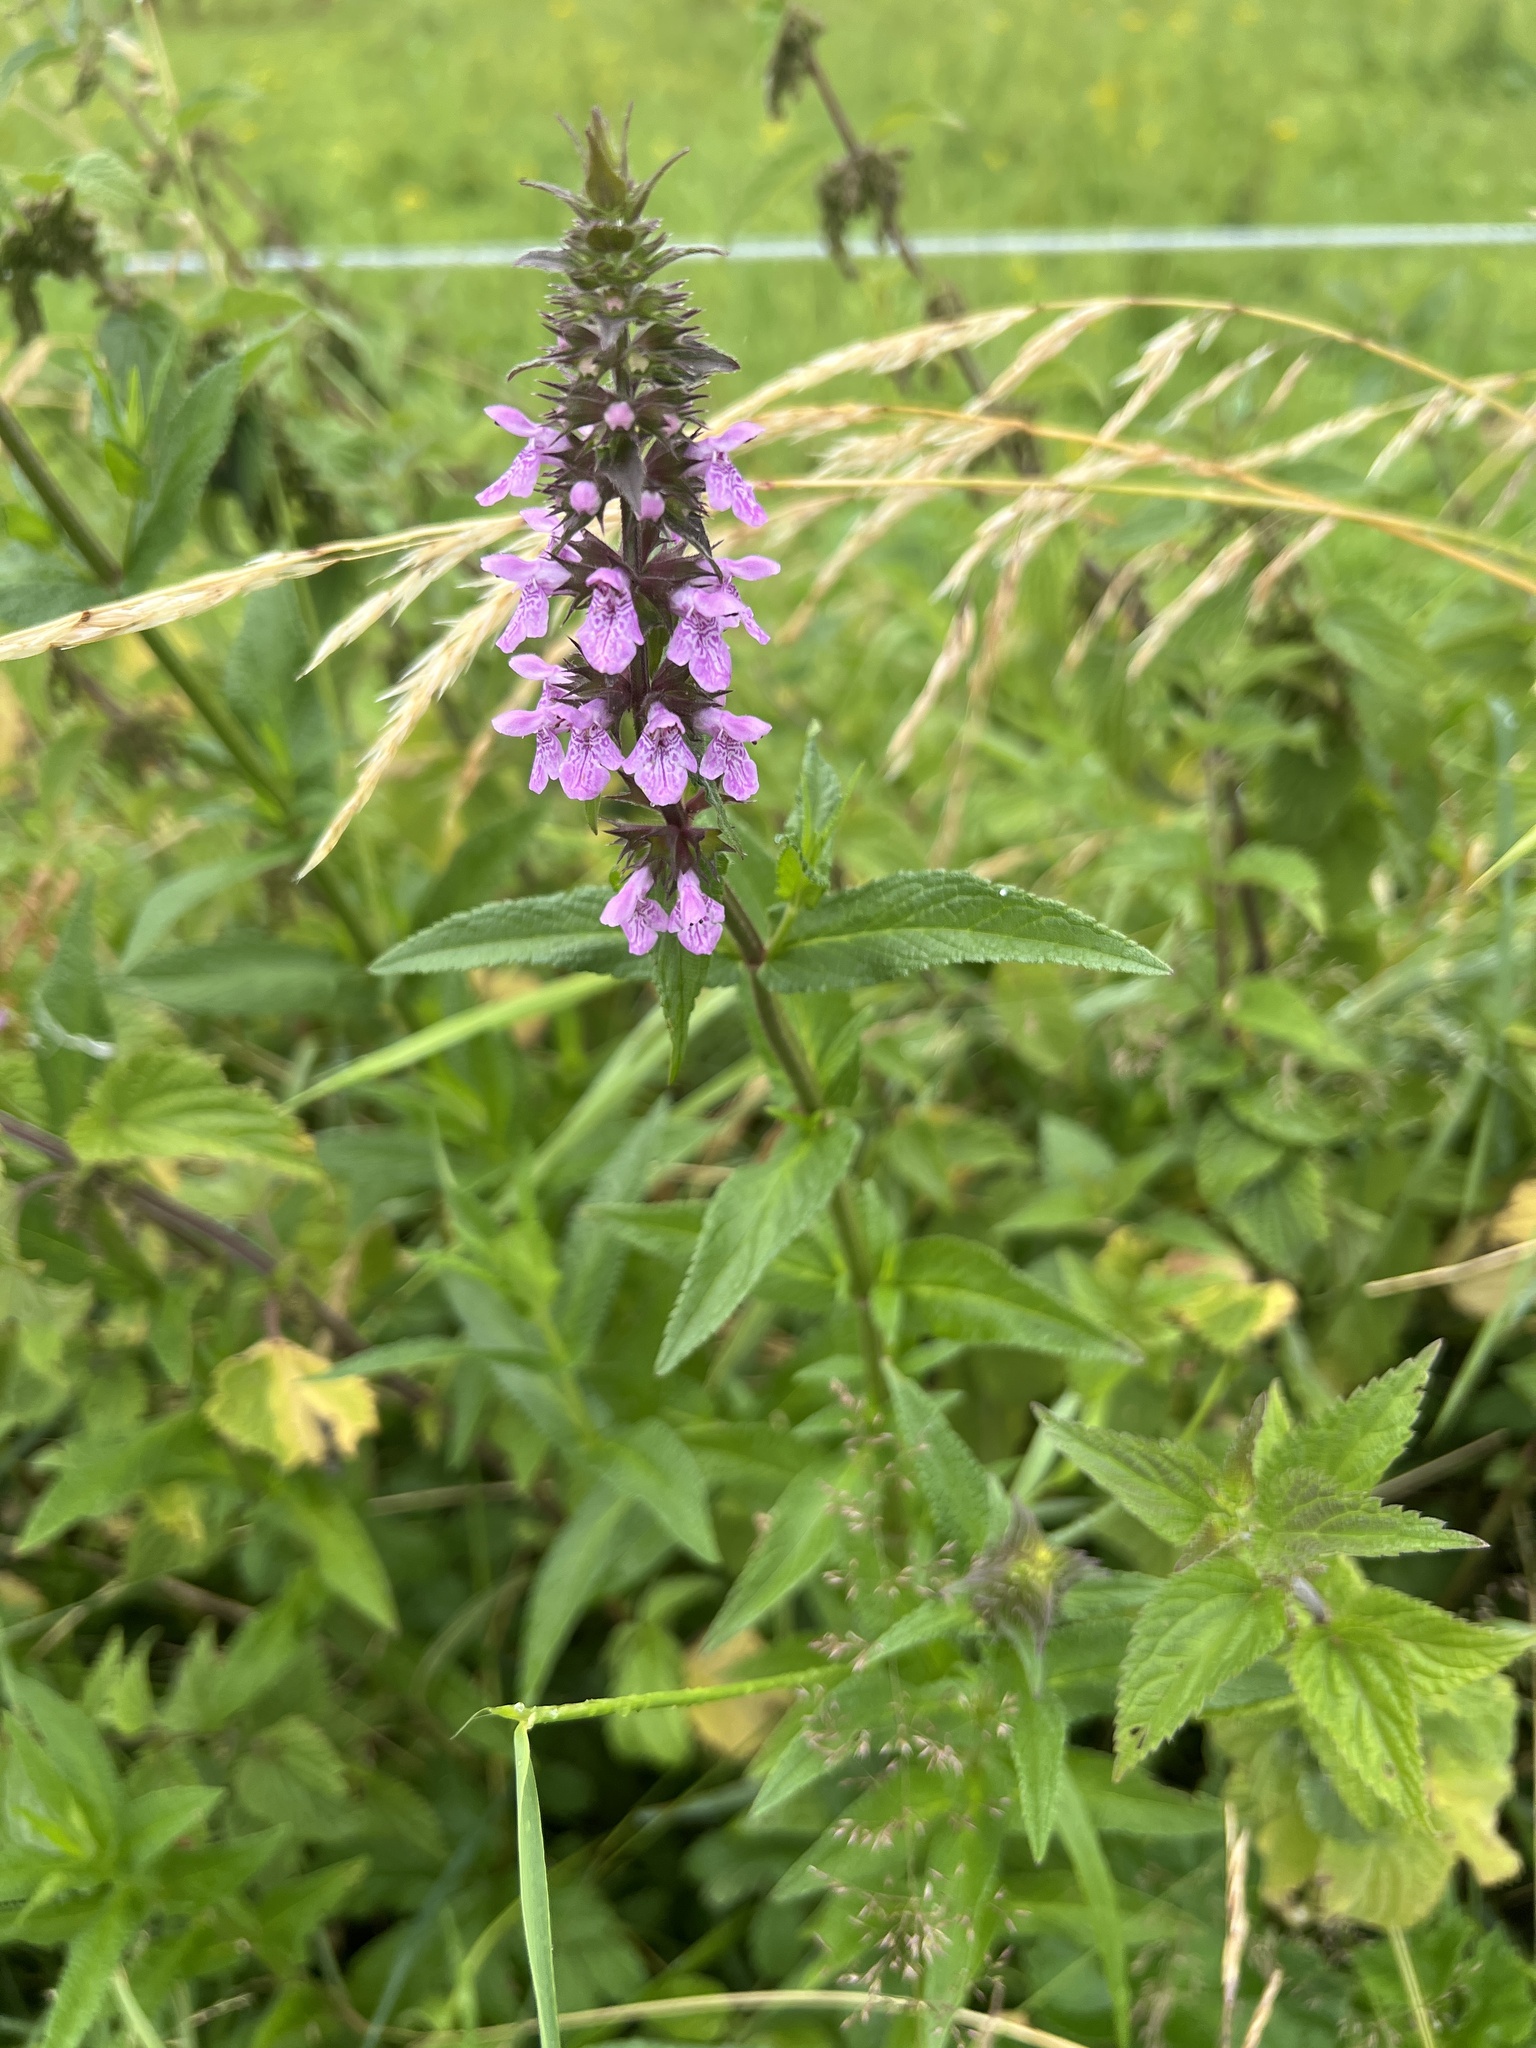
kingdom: Plantae
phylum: Tracheophyta
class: Magnoliopsida
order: Lamiales
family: Lamiaceae
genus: Stachys
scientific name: Stachys palustris
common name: Marsh woundwort
